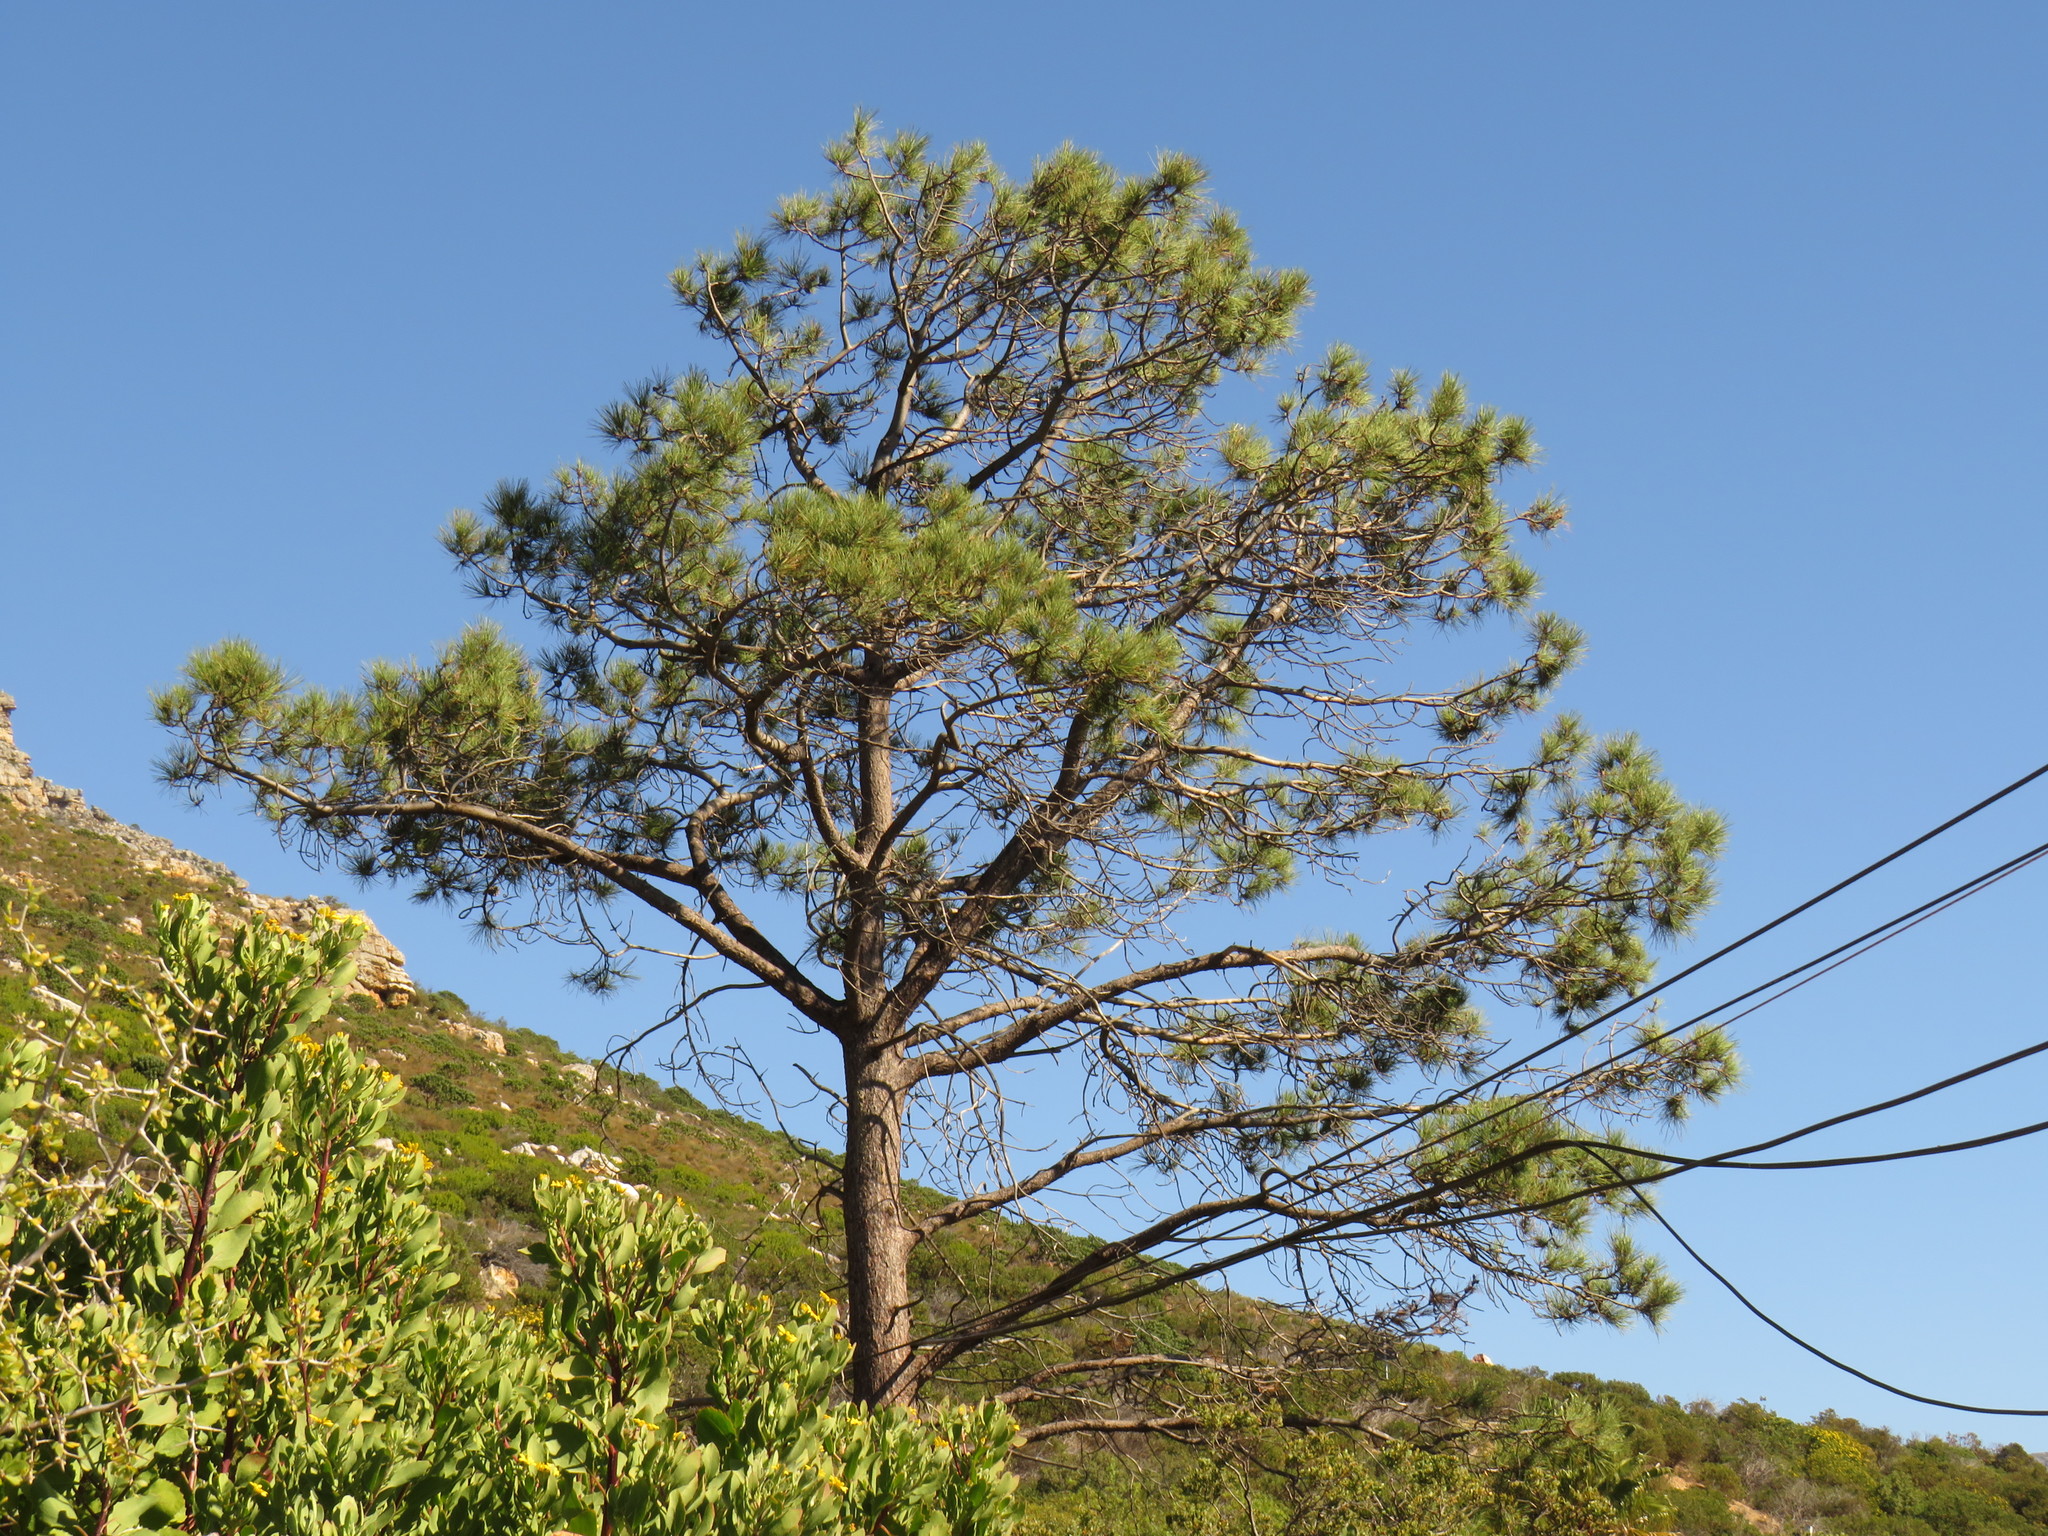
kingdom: Plantae
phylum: Tracheophyta
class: Pinopsida
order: Pinales
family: Pinaceae
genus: Pinus
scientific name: Pinus pinaster
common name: Maritime pine
